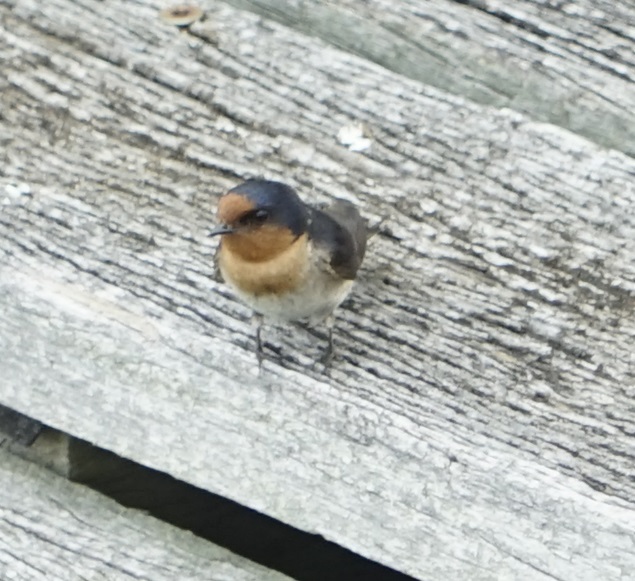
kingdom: Animalia
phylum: Chordata
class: Aves
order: Passeriformes
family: Hirundinidae
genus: Hirundo
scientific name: Hirundo neoxena
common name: Welcome swallow
